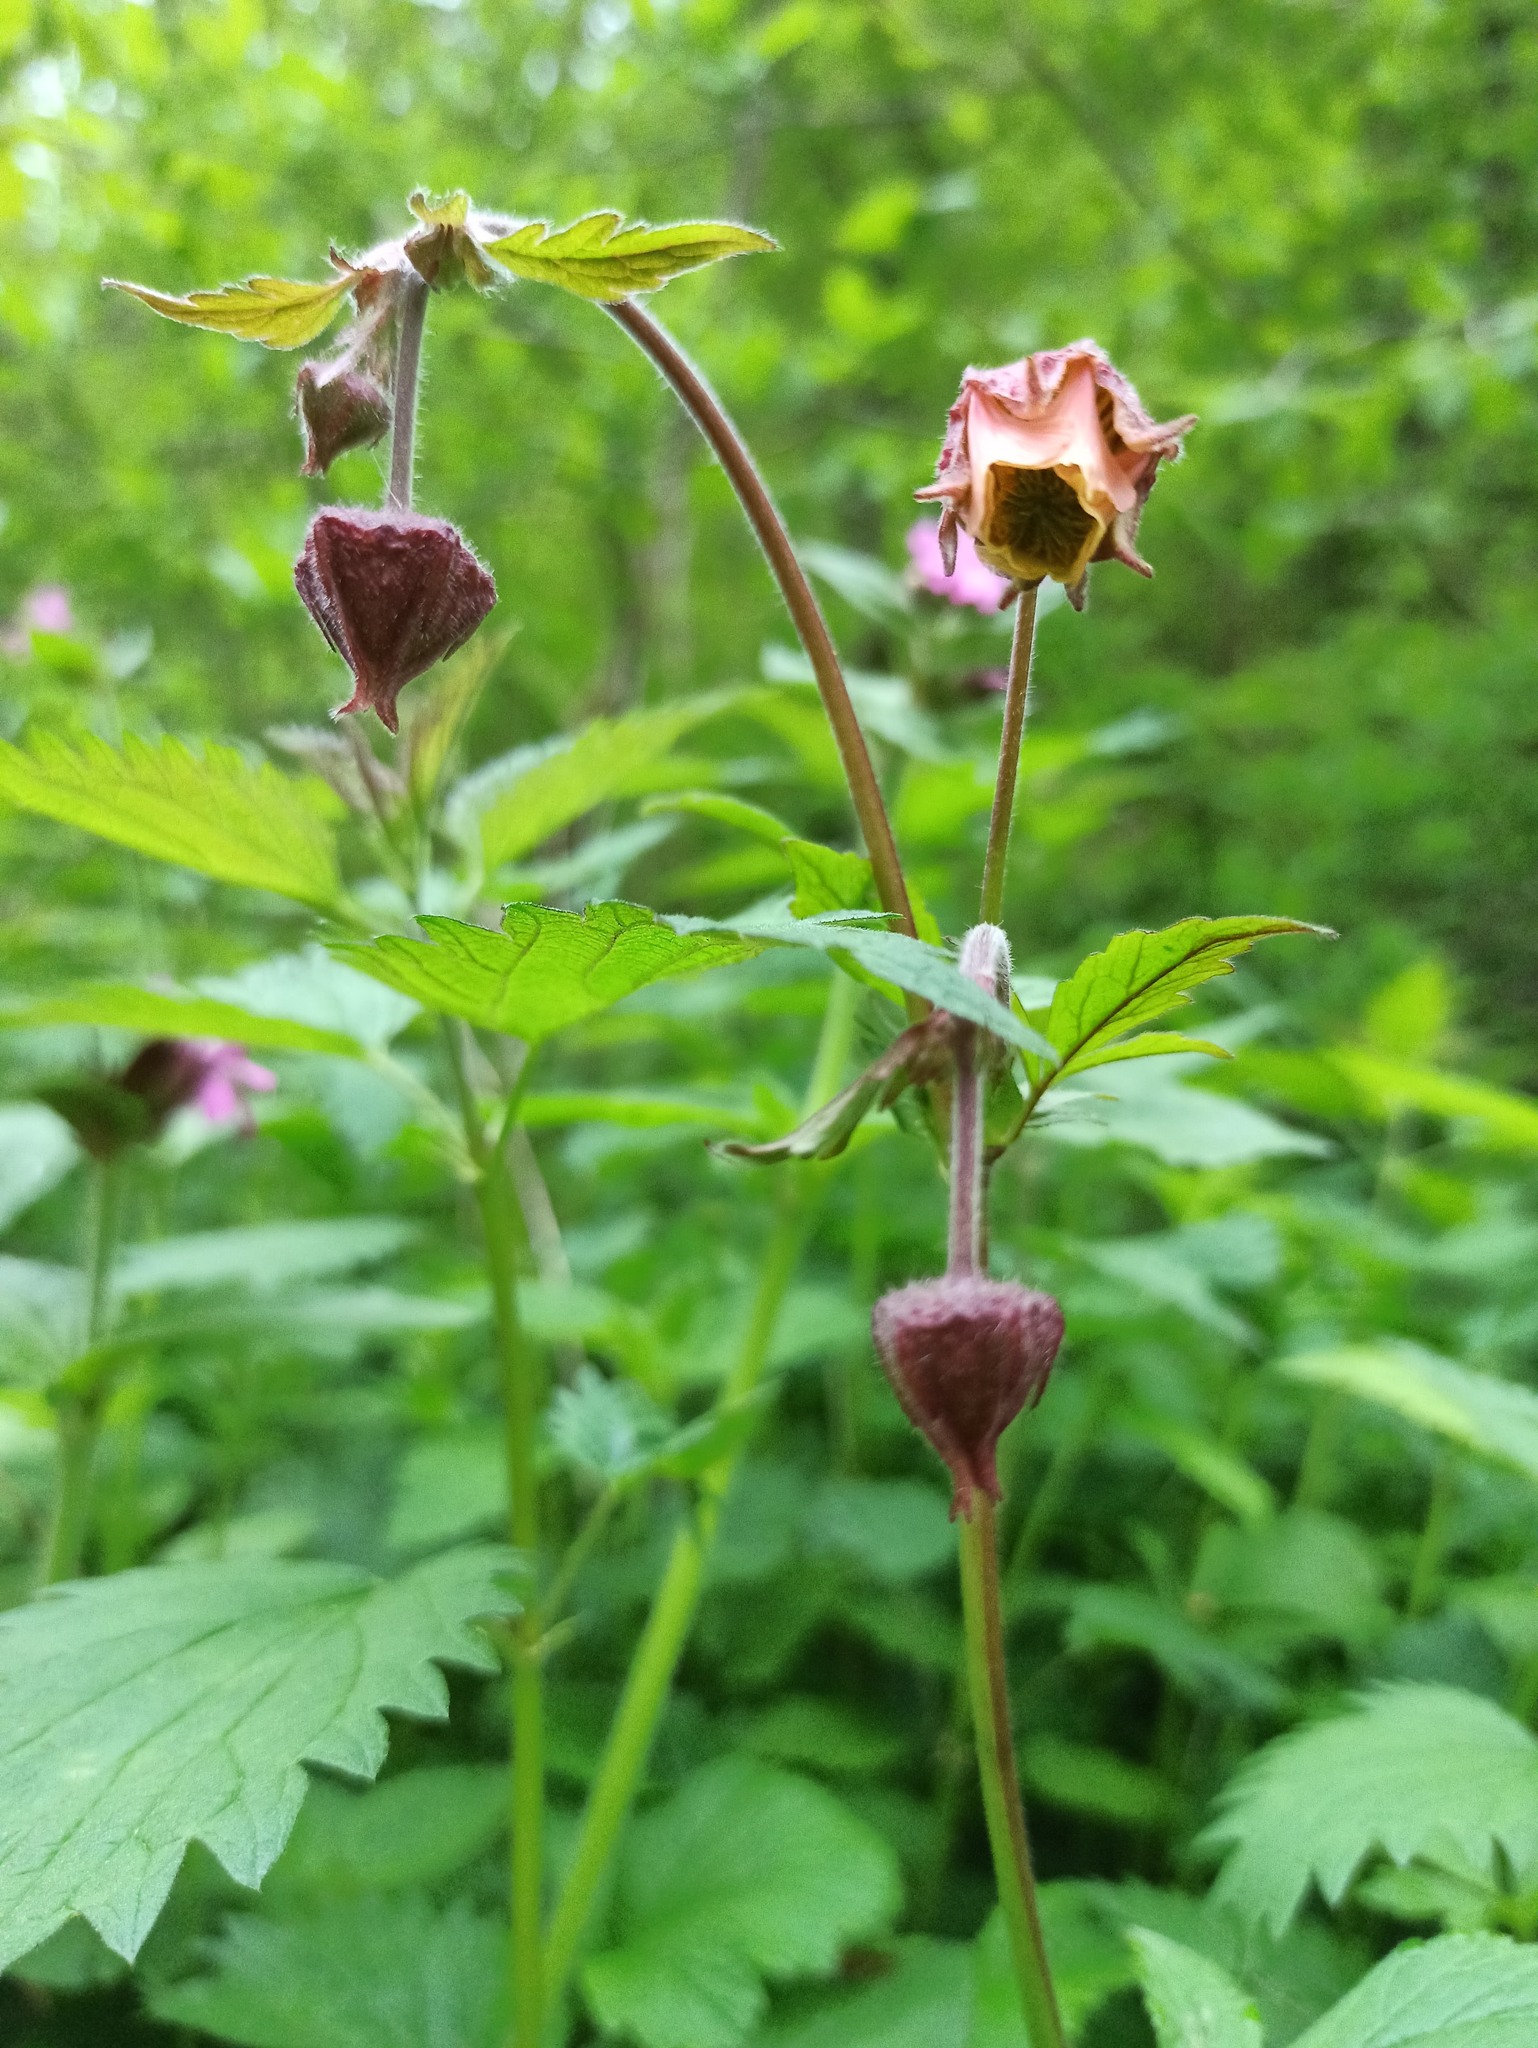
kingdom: Plantae
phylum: Tracheophyta
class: Magnoliopsida
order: Rosales
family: Rosaceae
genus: Geum
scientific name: Geum rivale
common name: Water avens
